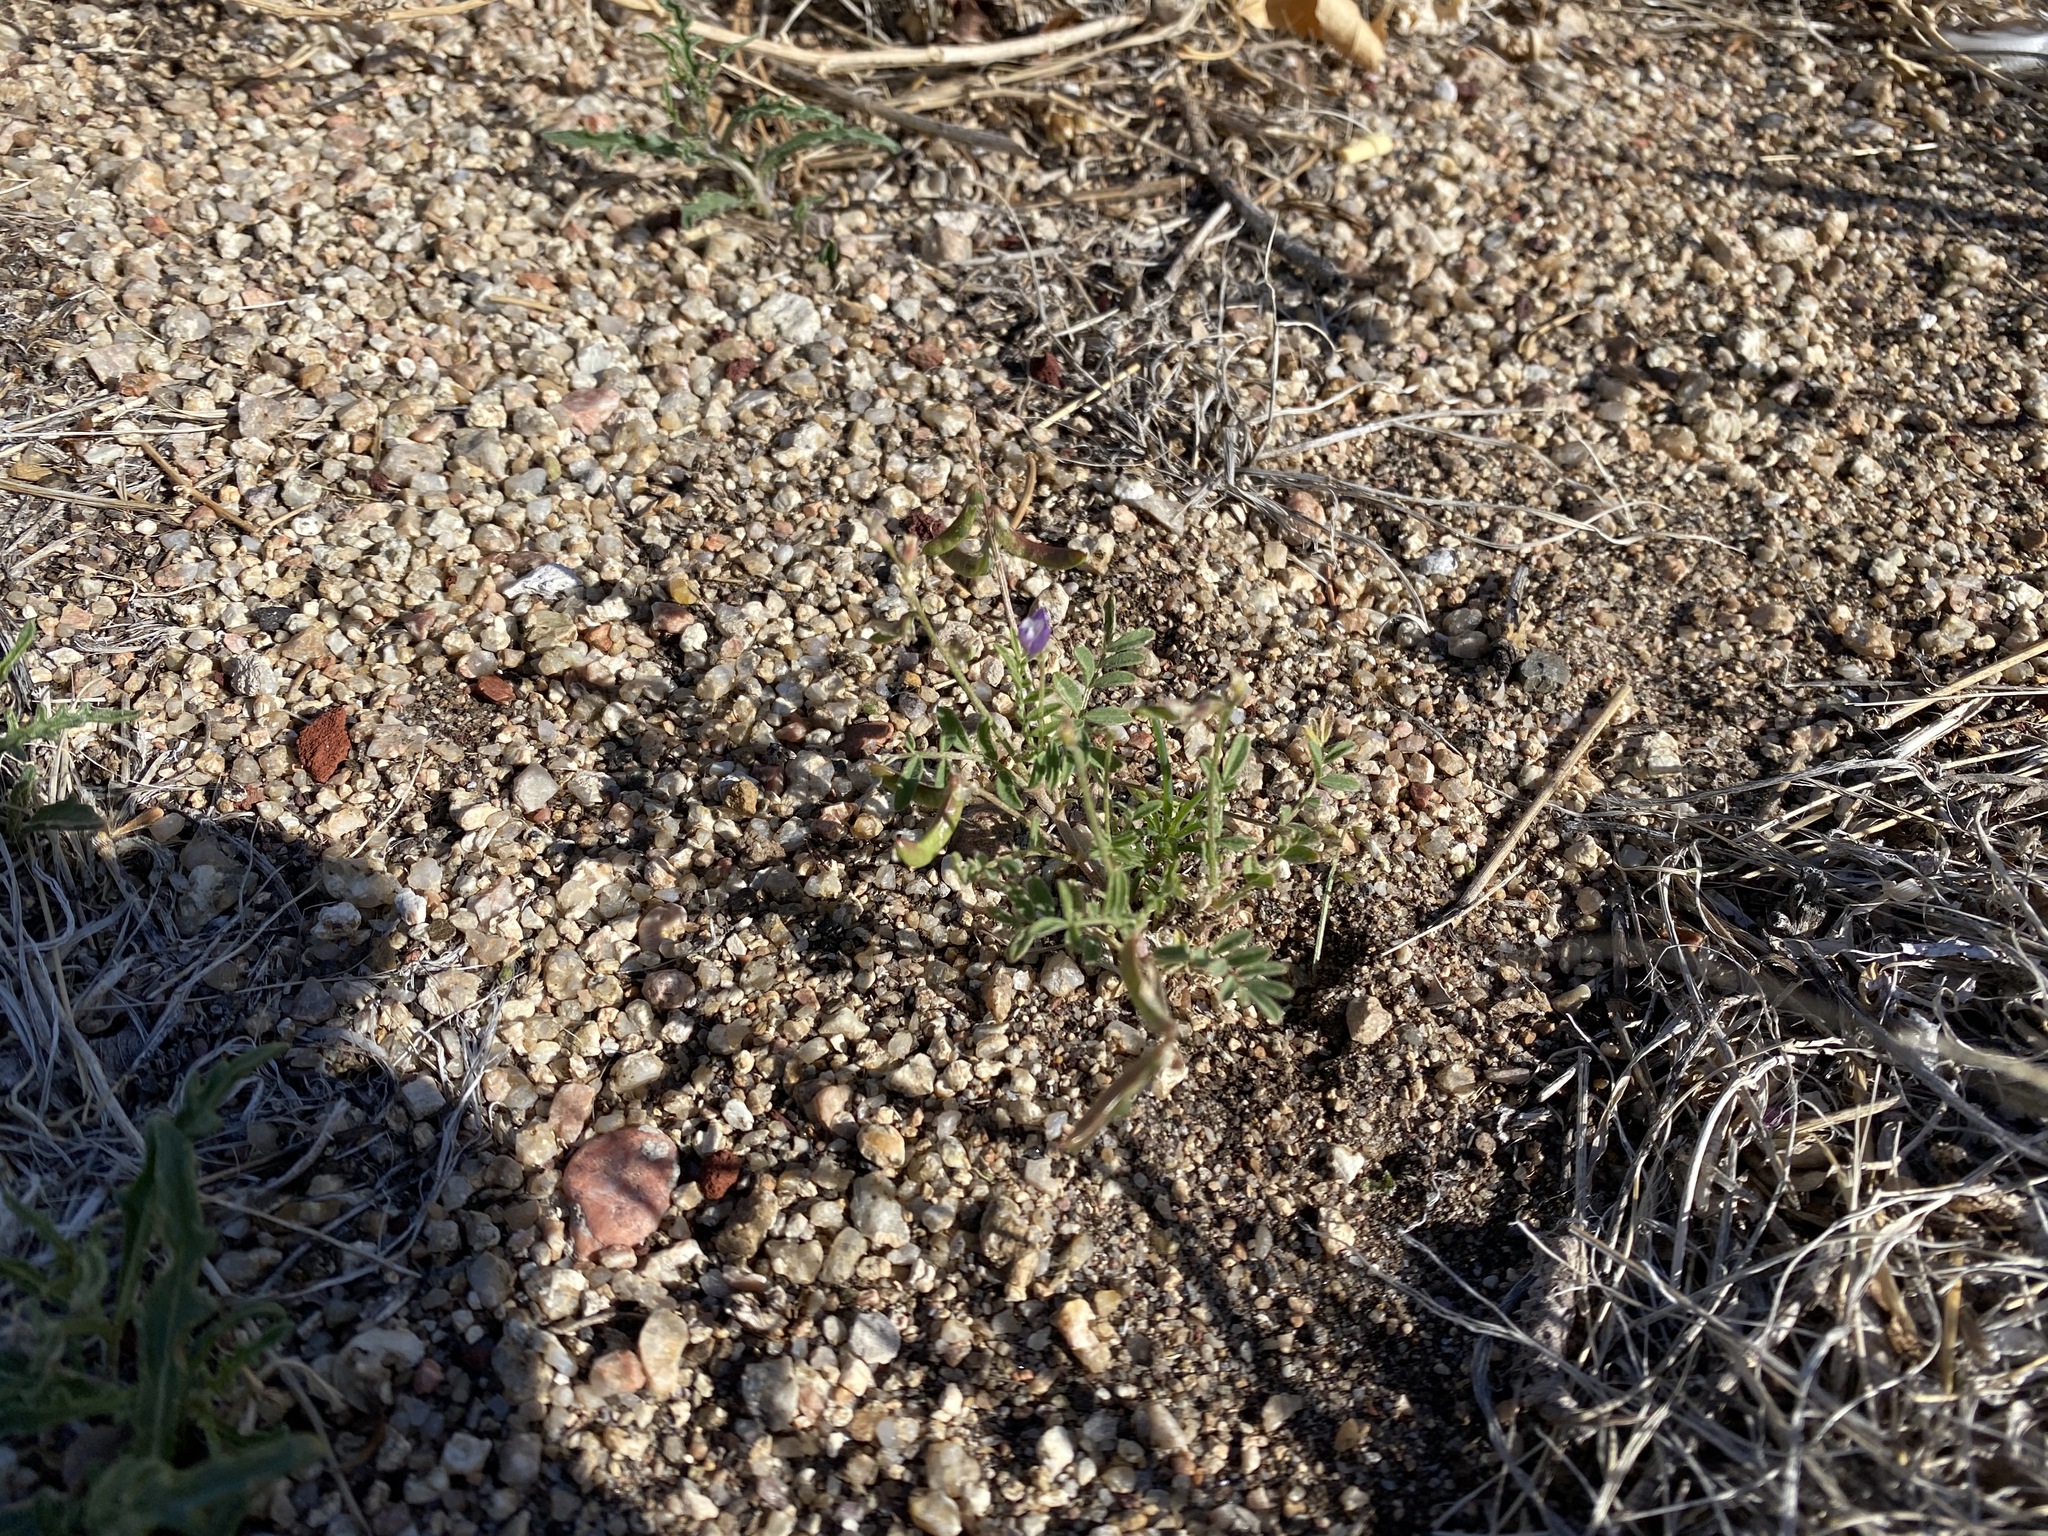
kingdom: Plantae
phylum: Tracheophyta
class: Magnoliopsida
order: Fabales
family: Fabaceae
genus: Astragalus
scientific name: Astragalus nuttallianus
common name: Smallflowered milkvetch
